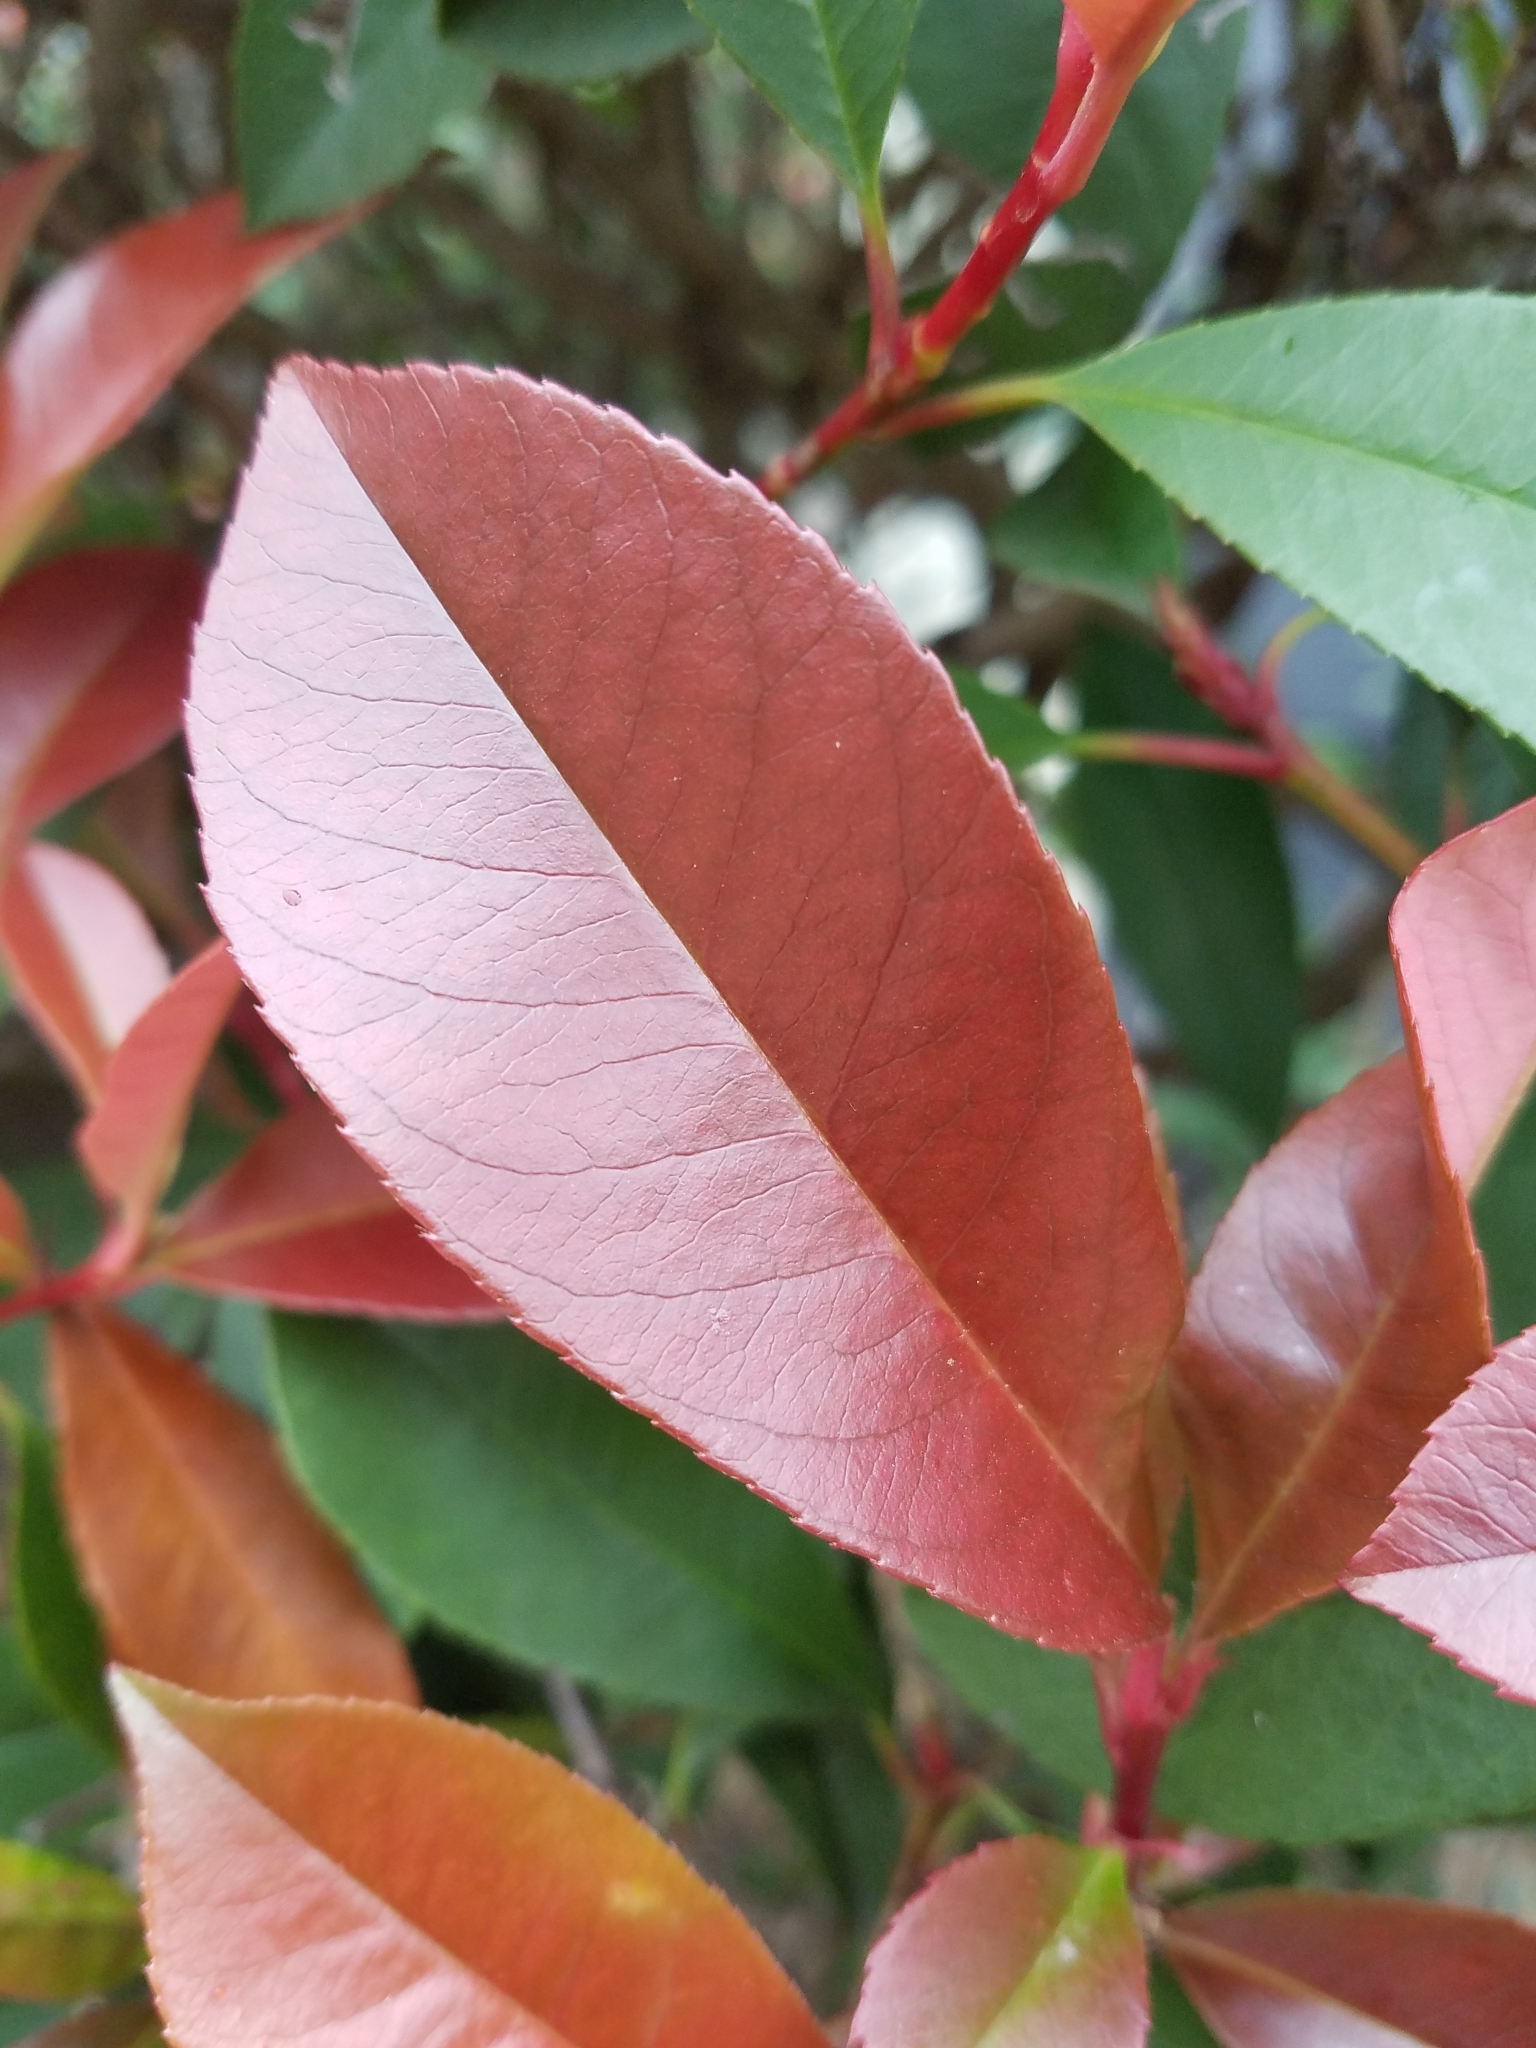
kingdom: Plantae
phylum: Tracheophyta
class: Magnoliopsida
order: Rosales
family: Rosaceae
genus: Photinia
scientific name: Photinia fraseri
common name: Fraser's photinia
